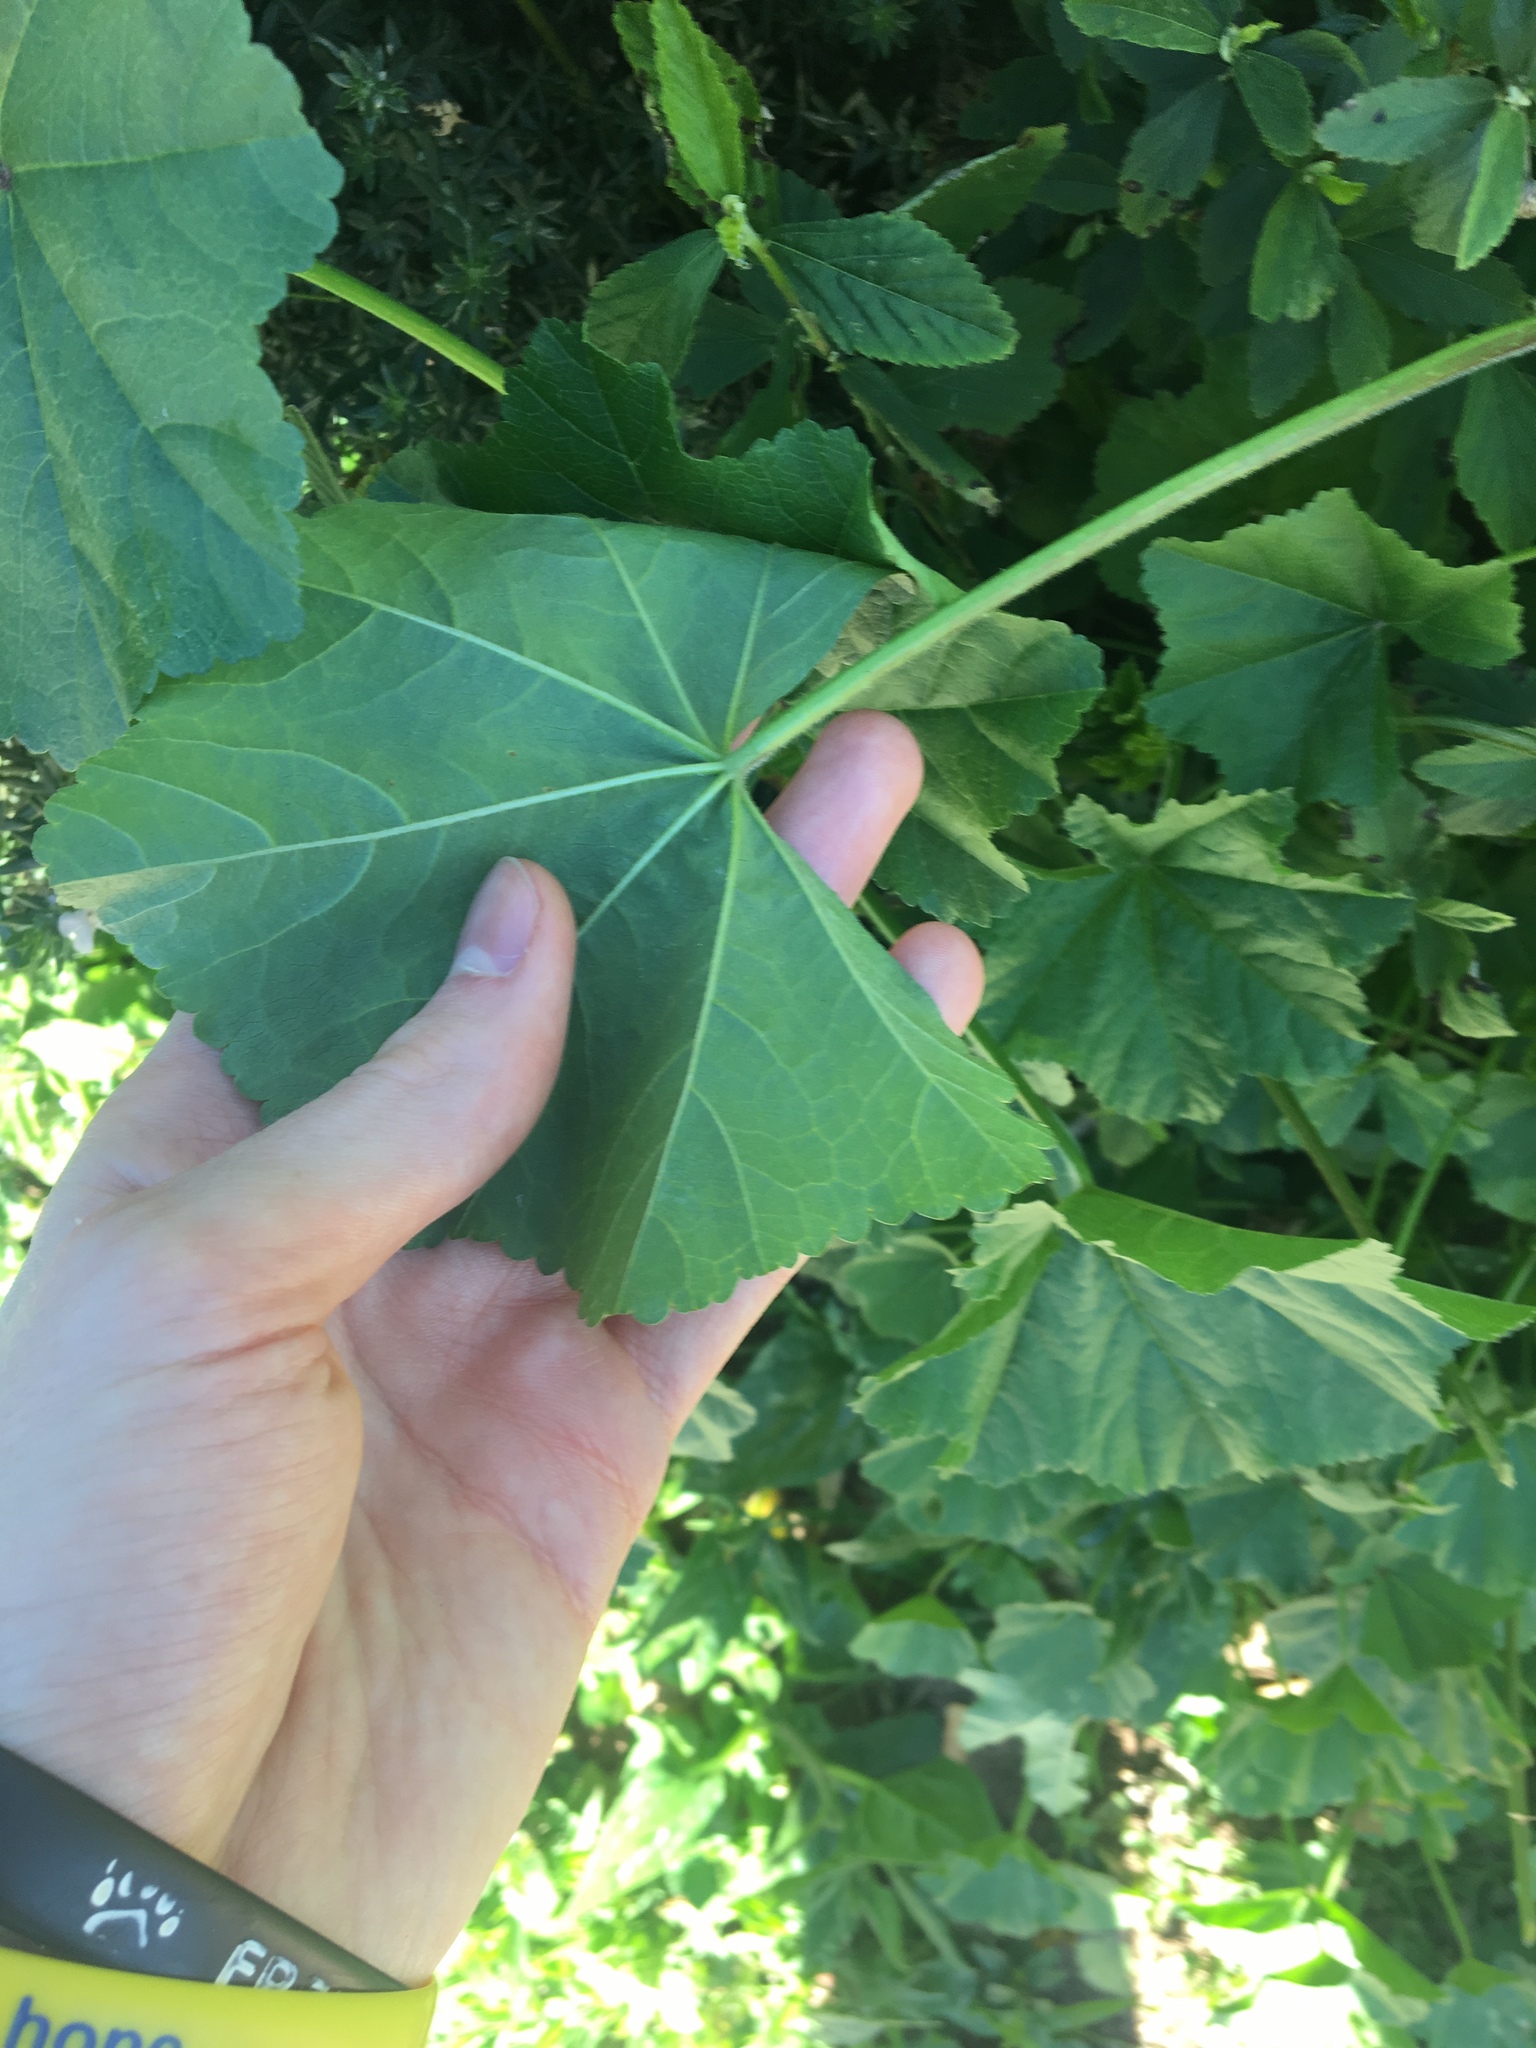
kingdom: Plantae
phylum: Tracheophyta
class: Magnoliopsida
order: Malvales
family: Malvaceae
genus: Malva
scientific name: Malva parviflora
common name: Least mallow
